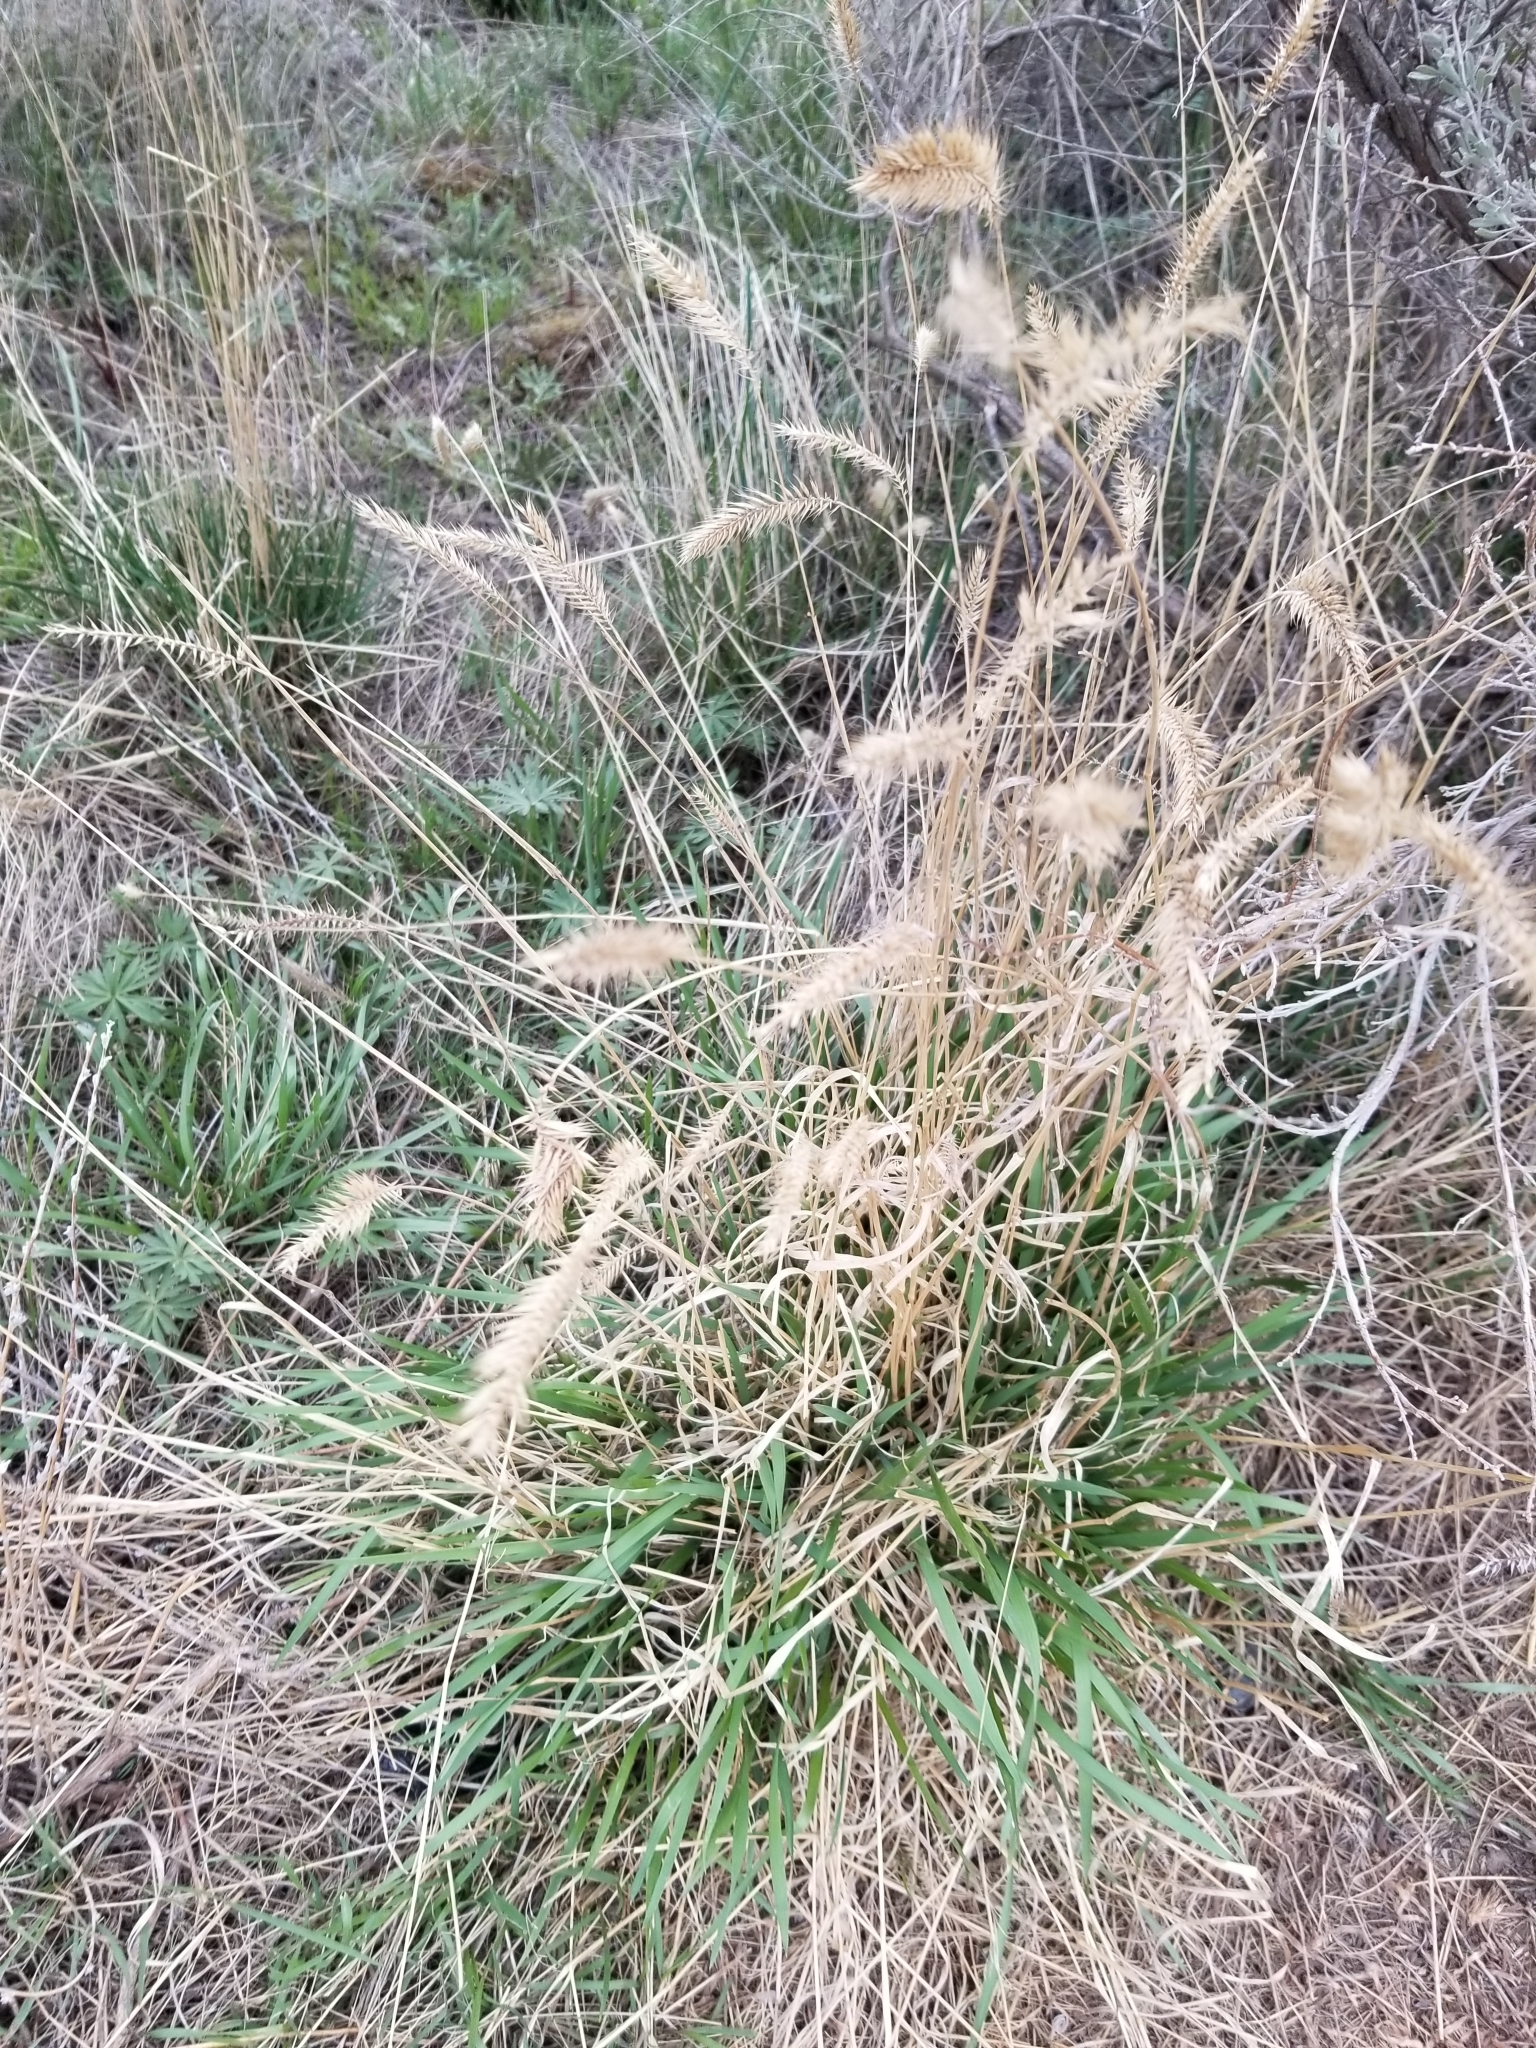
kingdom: Plantae
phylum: Tracheophyta
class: Liliopsida
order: Poales
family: Poaceae
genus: Agropyron
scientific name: Agropyron cristatum
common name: Crested wheatgrass
